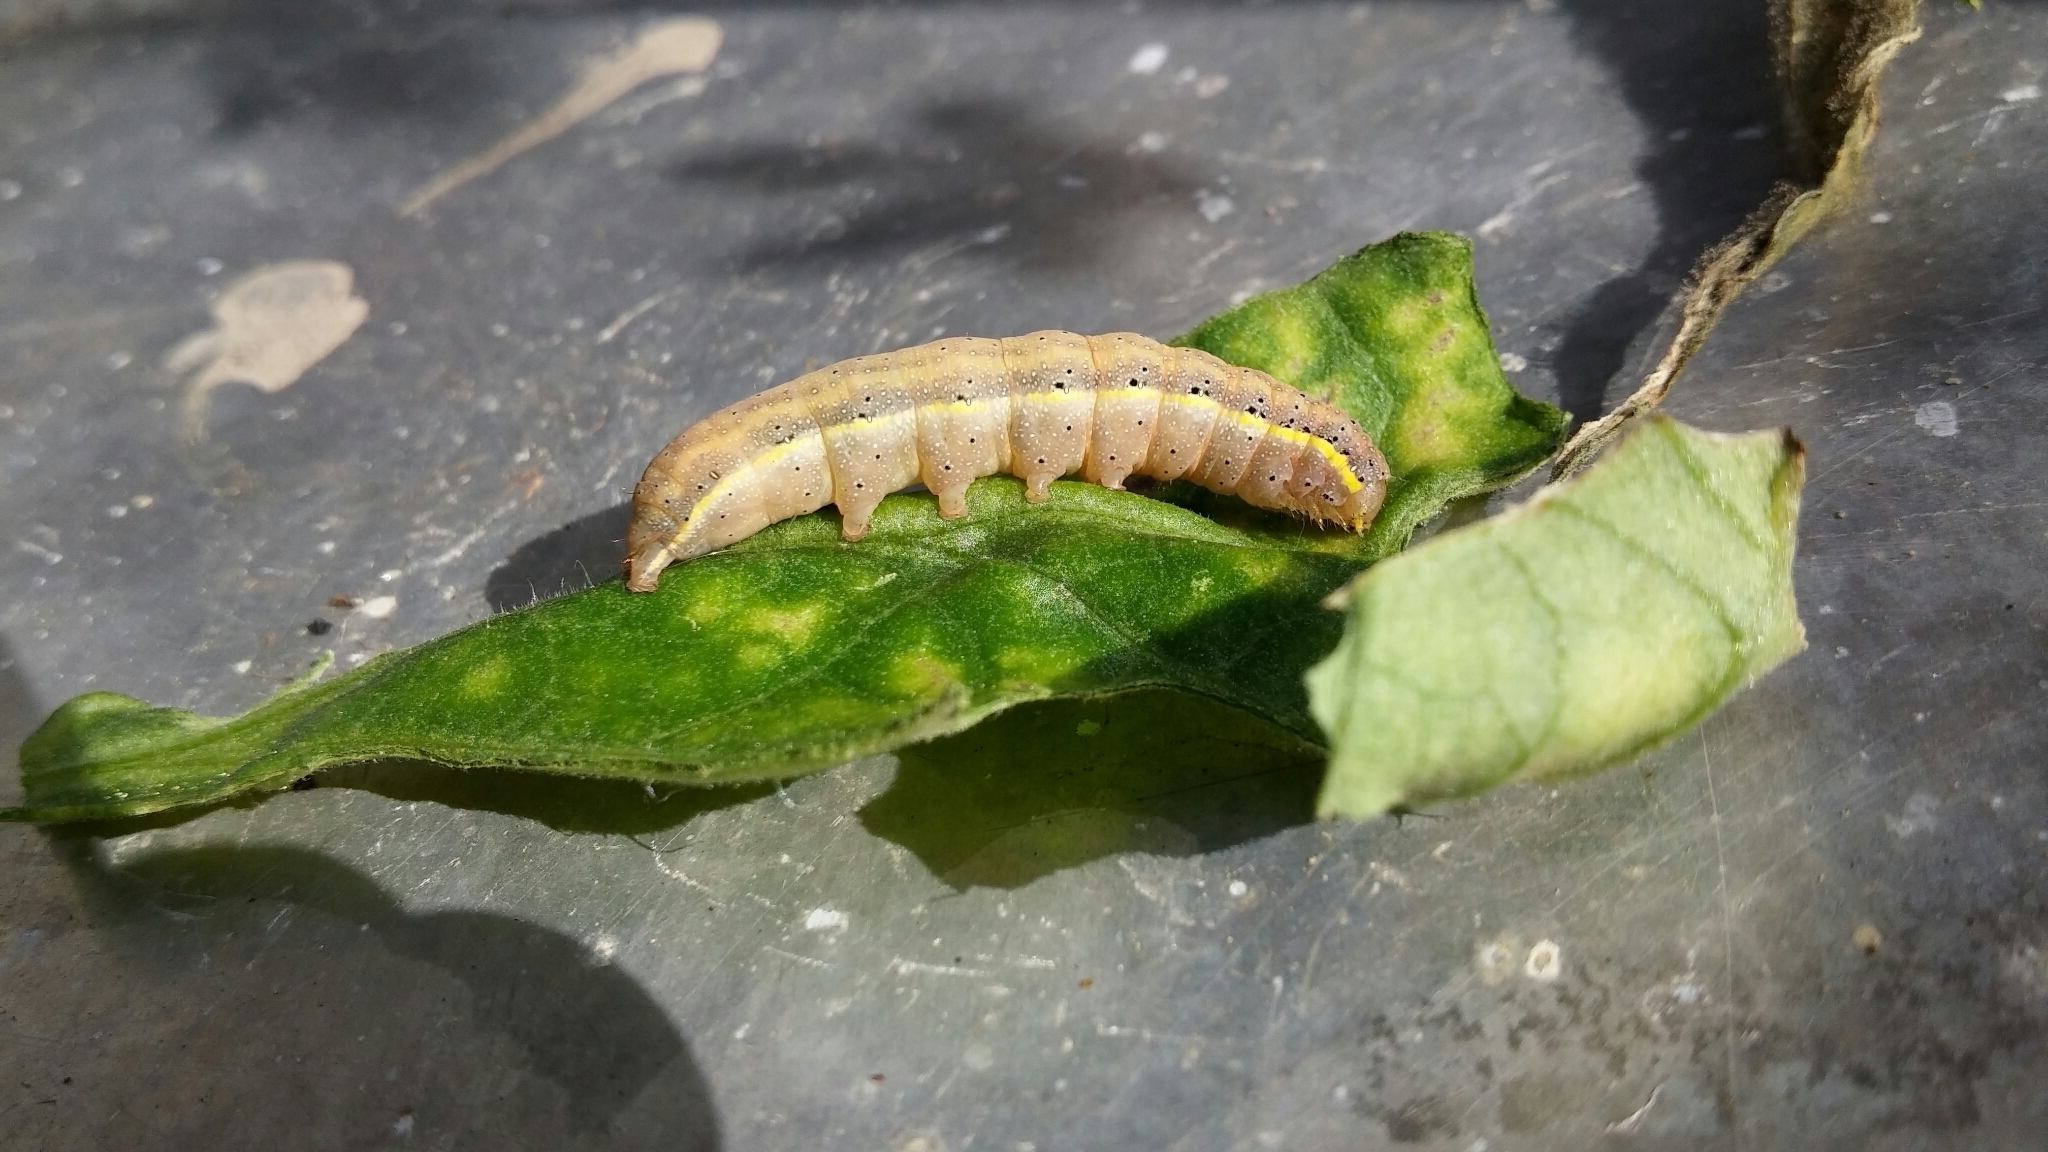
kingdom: Animalia
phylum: Arthropoda
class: Insecta
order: Lepidoptera
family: Noctuidae
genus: Lacanobia
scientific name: Lacanobia oleracea
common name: Bright-line brown-eye
